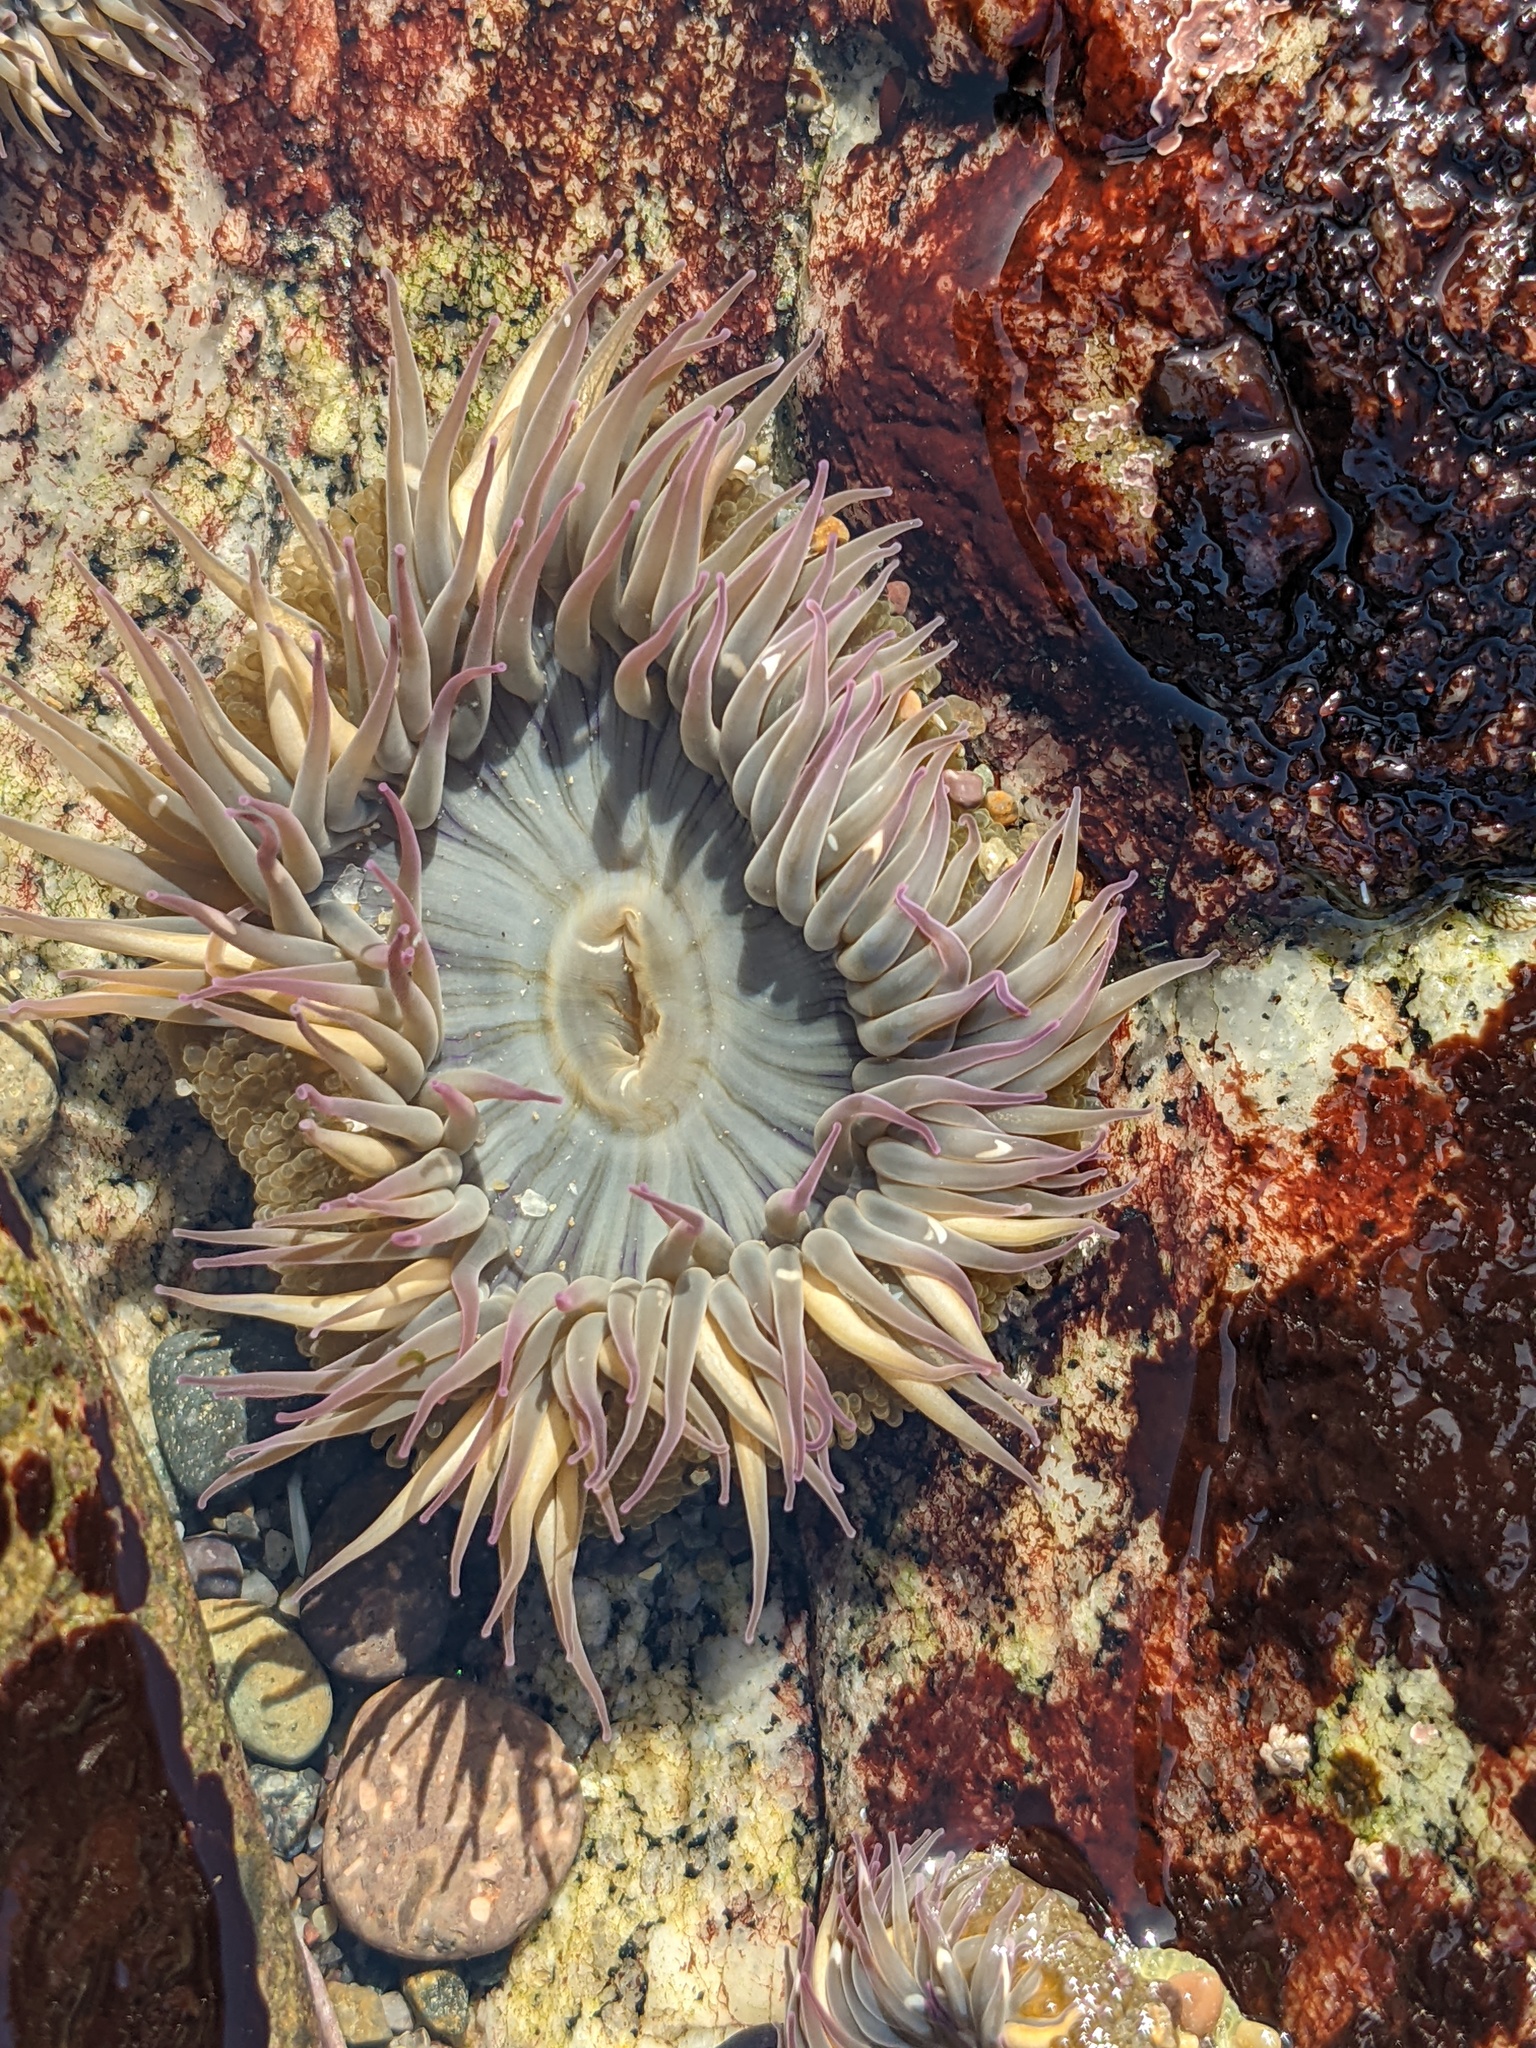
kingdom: Animalia
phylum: Cnidaria
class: Anthozoa
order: Actiniaria
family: Actiniidae
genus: Anthopleura
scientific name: Anthopleura elegantissima
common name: Clonal anemone
